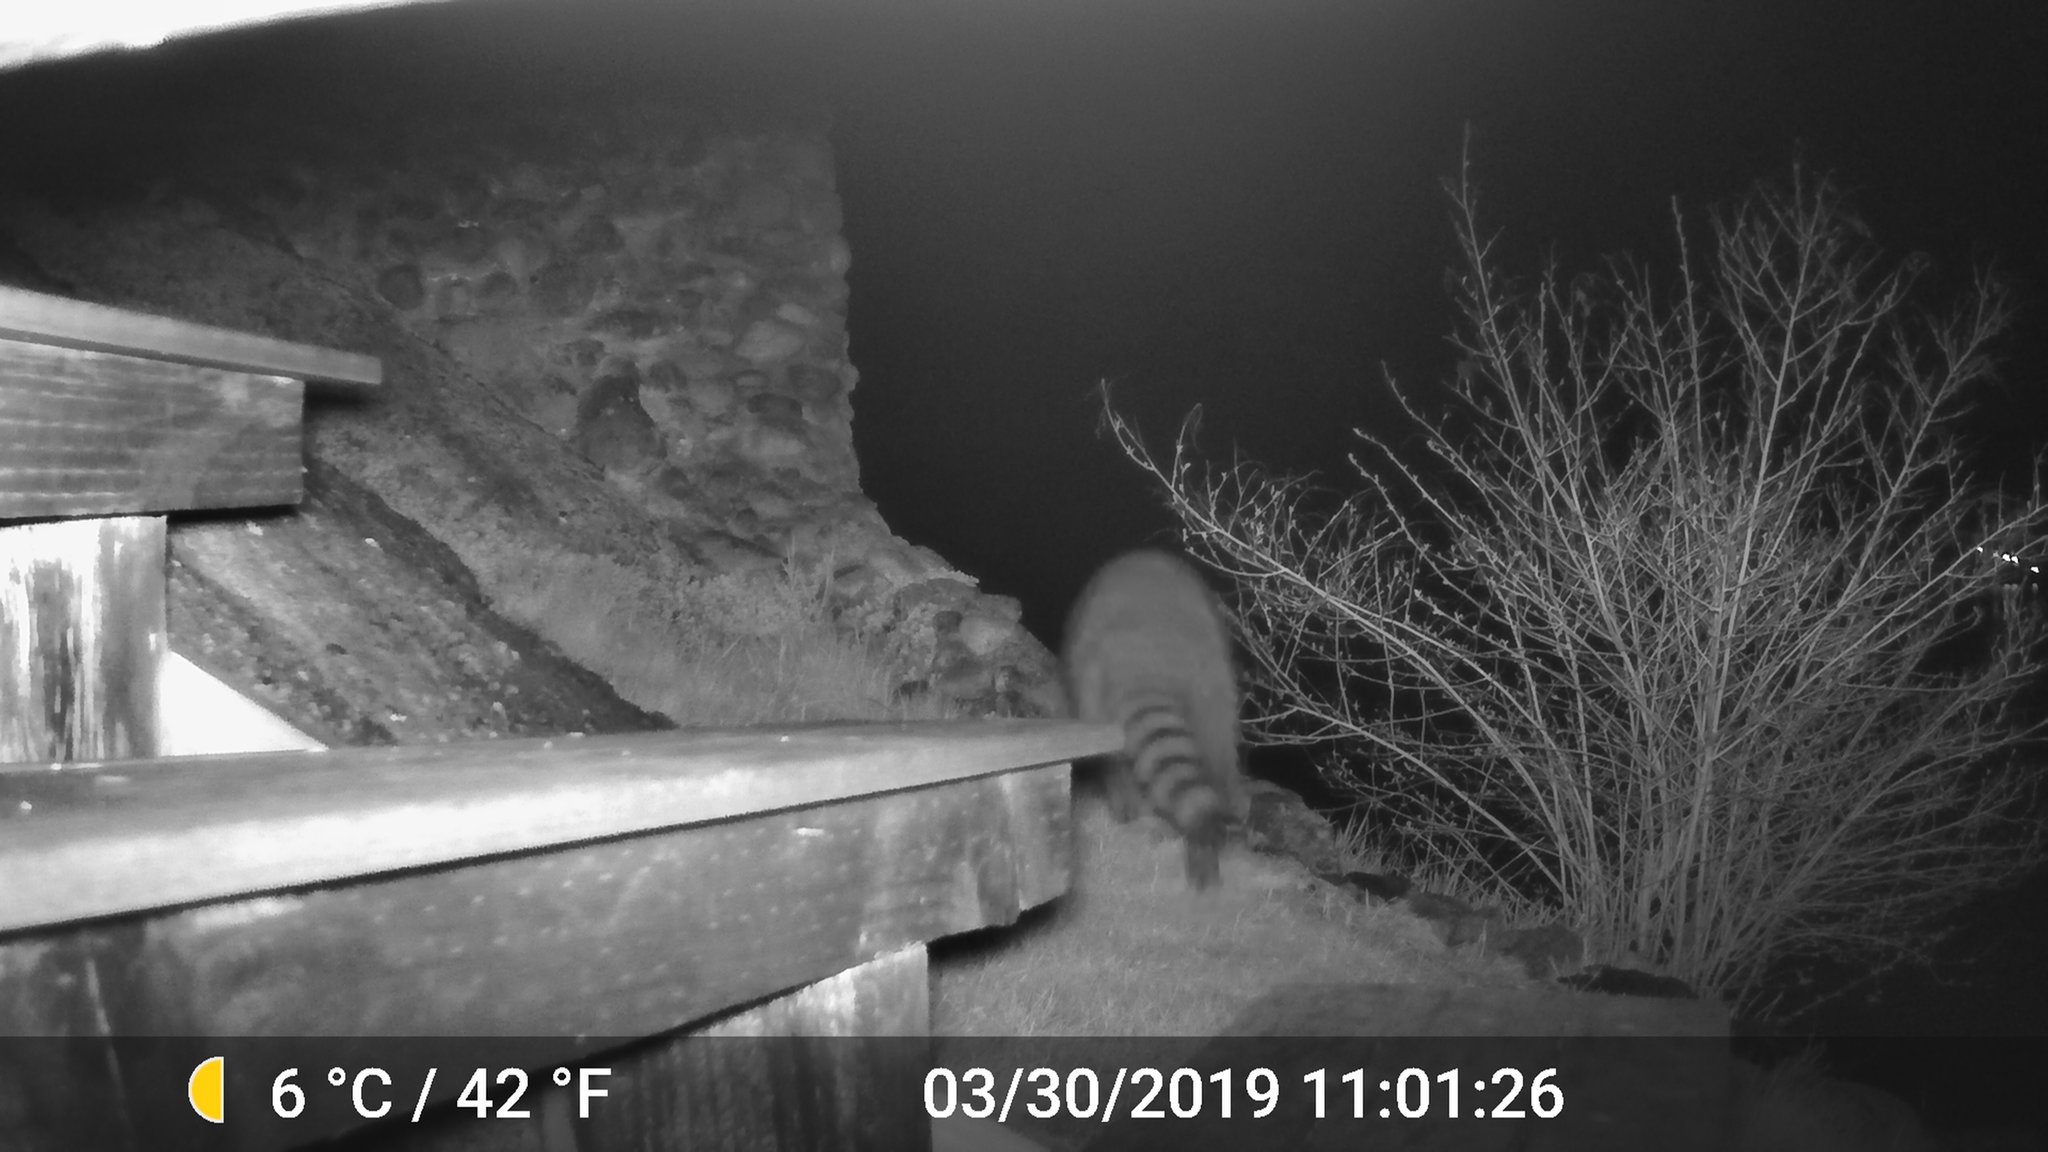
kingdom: Animalia
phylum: Chordata
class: Mammalia
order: Carnivora
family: Procyonidae
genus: Procyon
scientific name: Procyon lotor
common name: Raccoon
